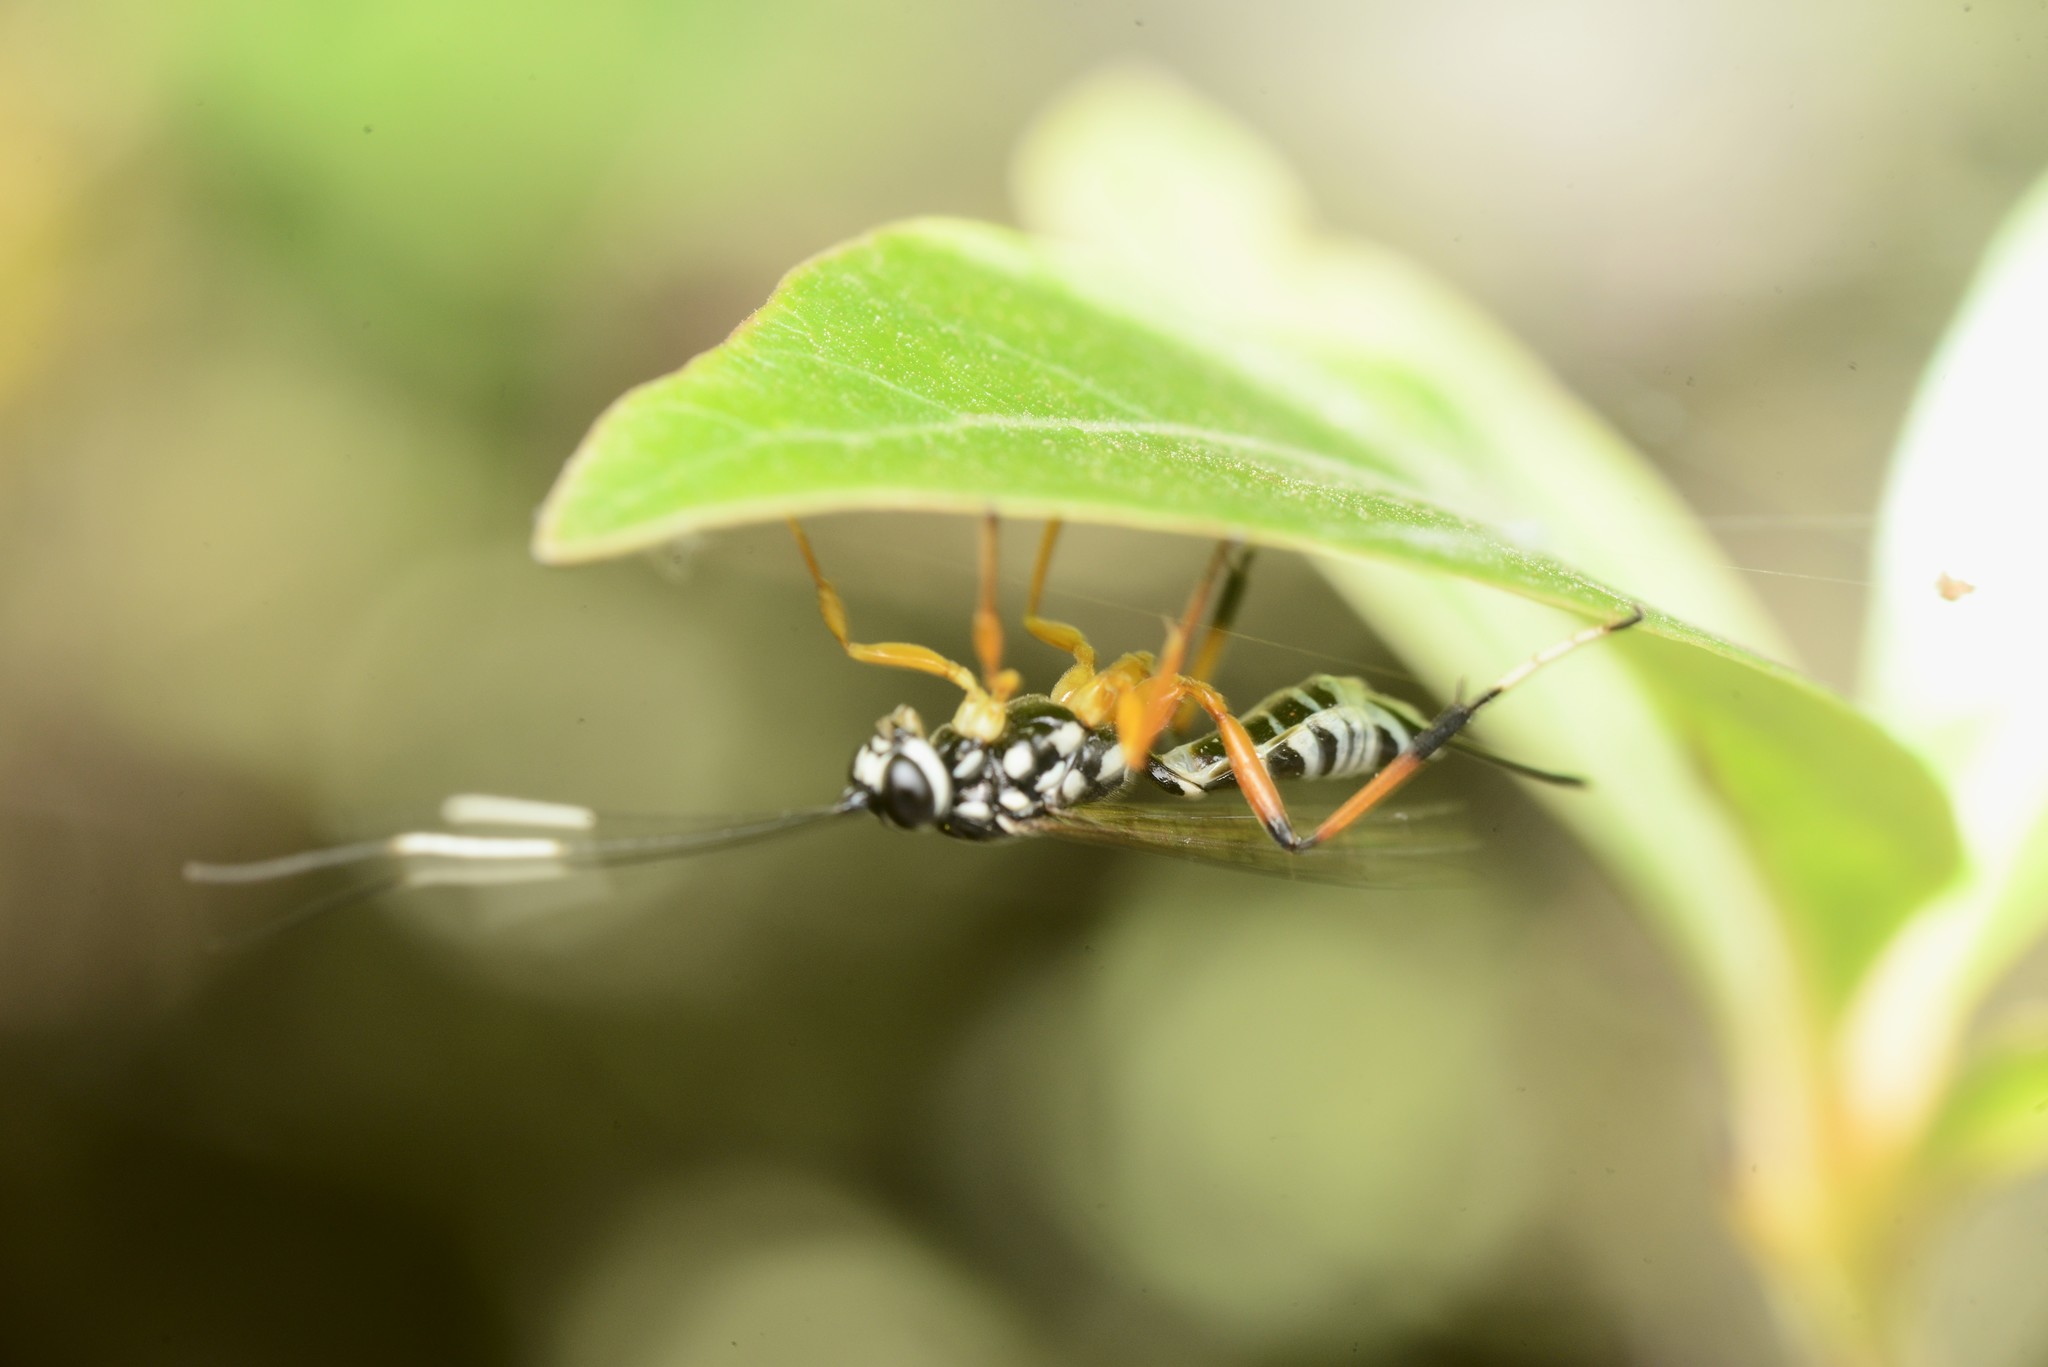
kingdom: Animalia
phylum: Arthropoda
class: Insecta
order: Hymenoptera
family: Ichneumonidae
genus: Xanthocryptus
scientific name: Xanthocryptus novozealandicus
